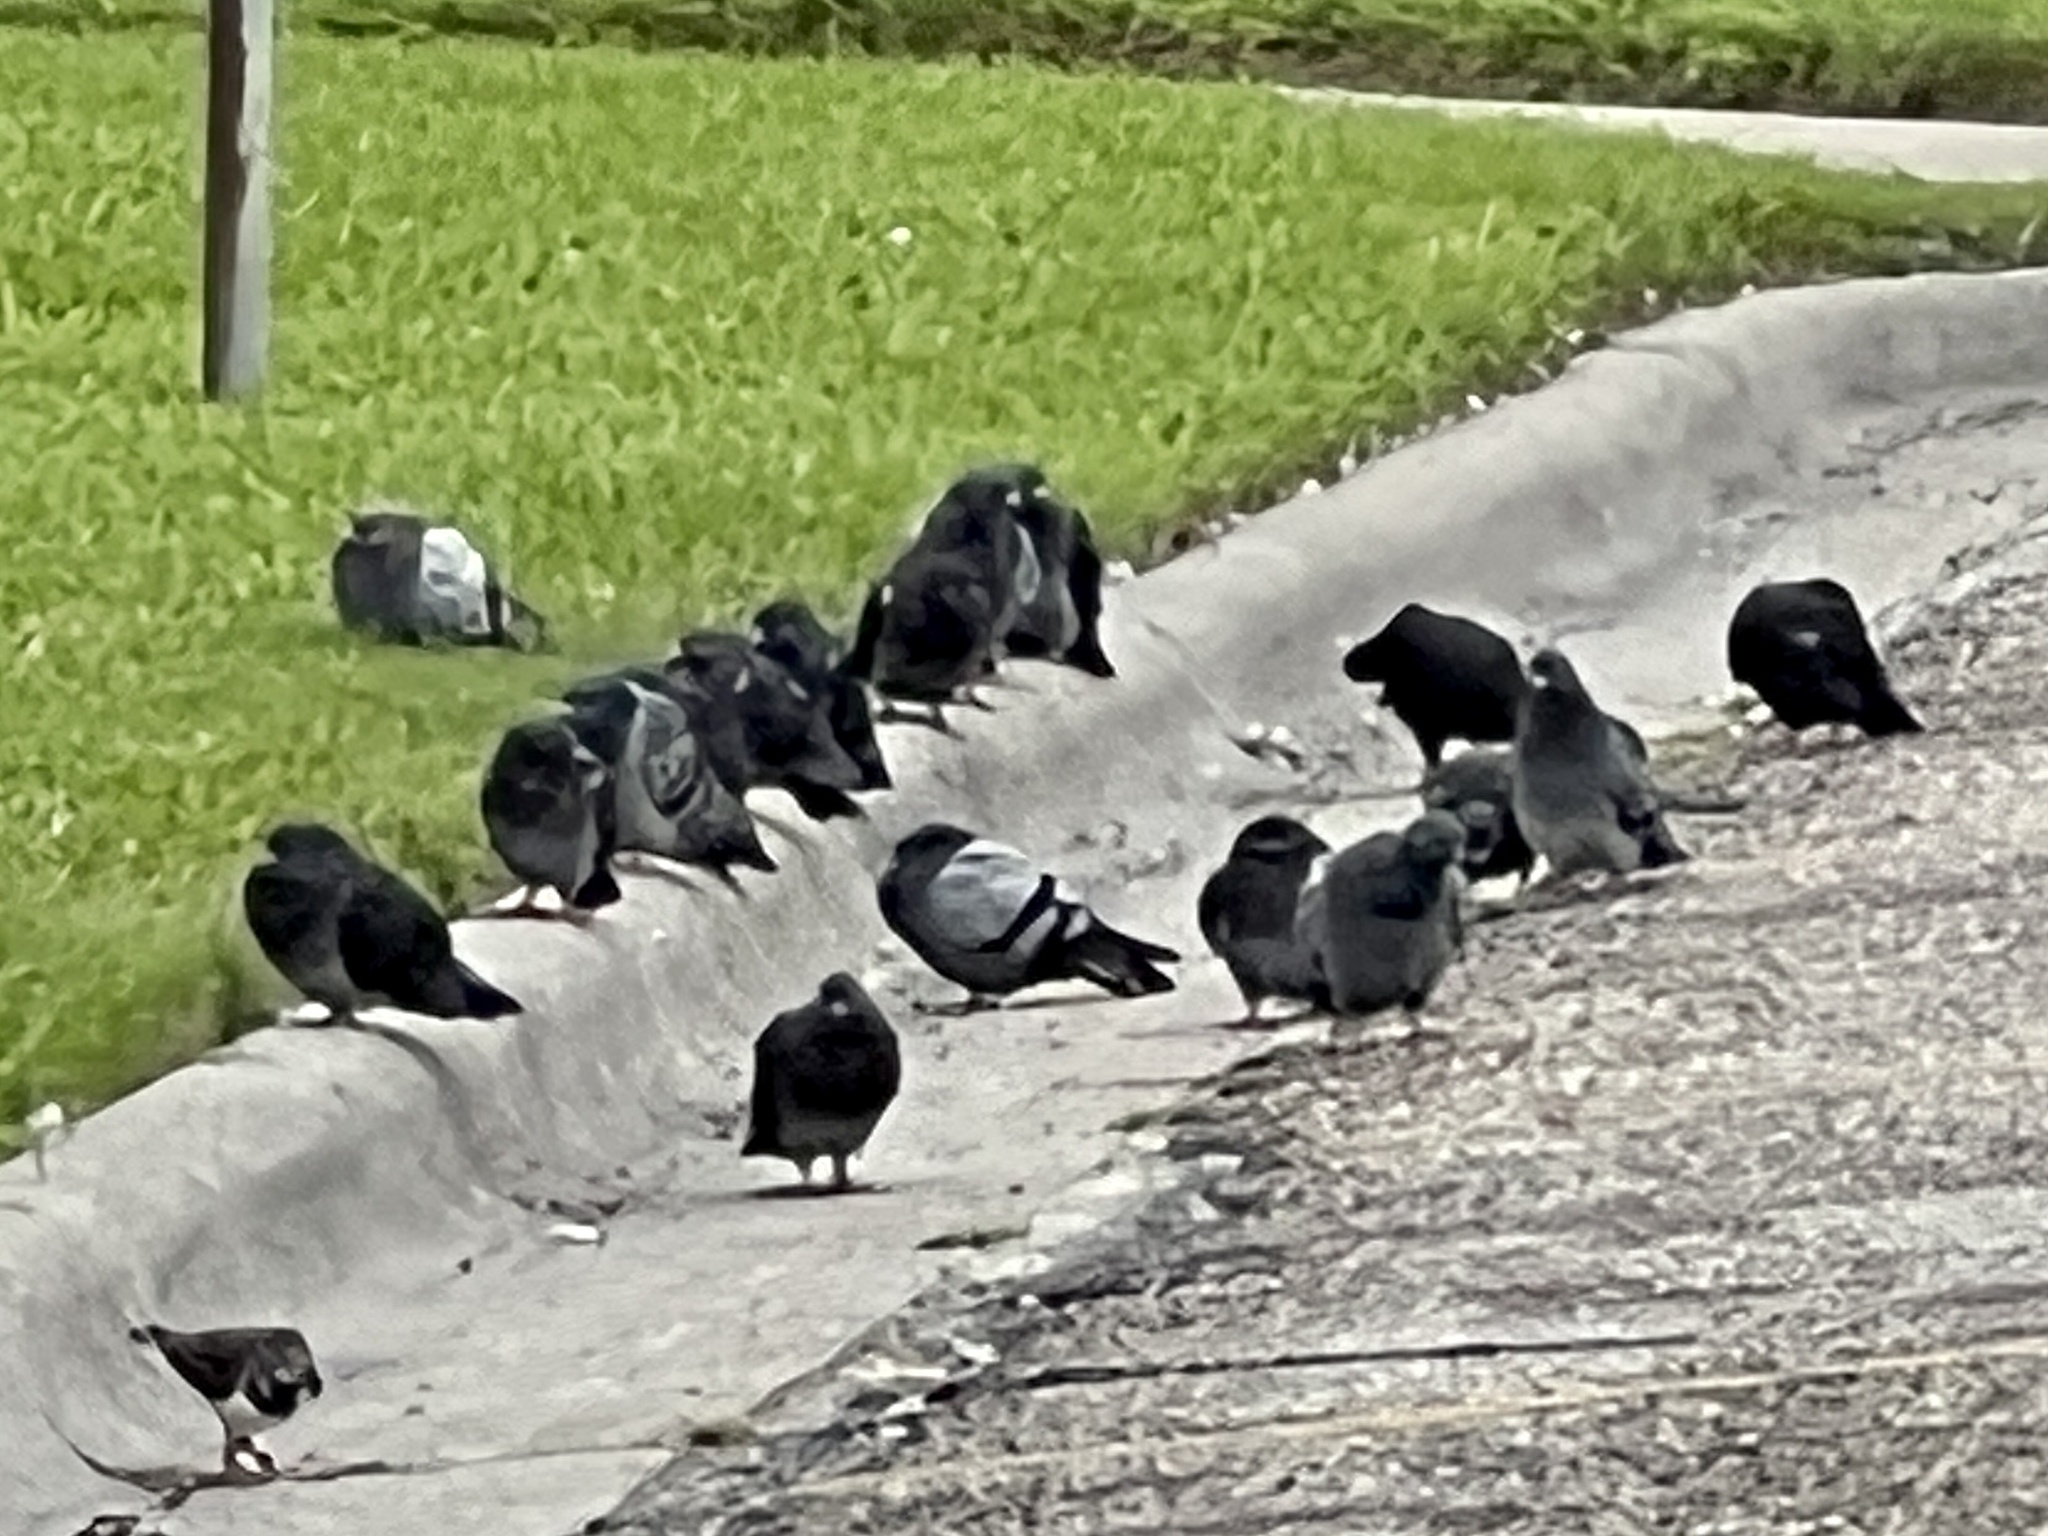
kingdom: Animalia
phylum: Chordata
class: Aves
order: Columbiformes
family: Columbidae
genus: Columba
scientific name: Columba livia
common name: Rock pigeon
